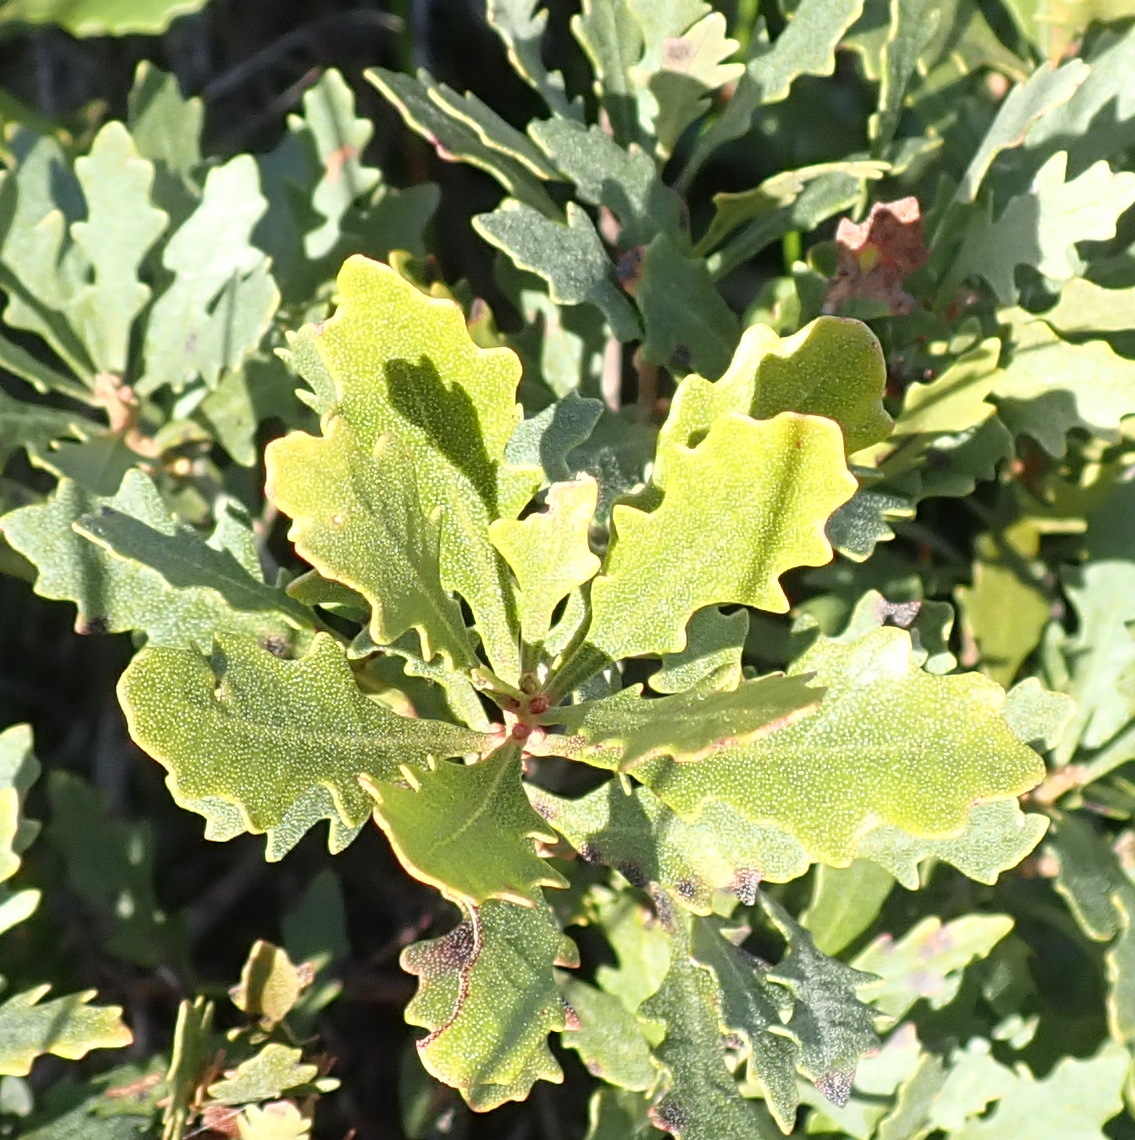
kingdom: Plantae
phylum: Tracheophyta
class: Magnoliopsida
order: Fagales
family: Myricaceae
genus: Morella
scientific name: Morella quercifolia
